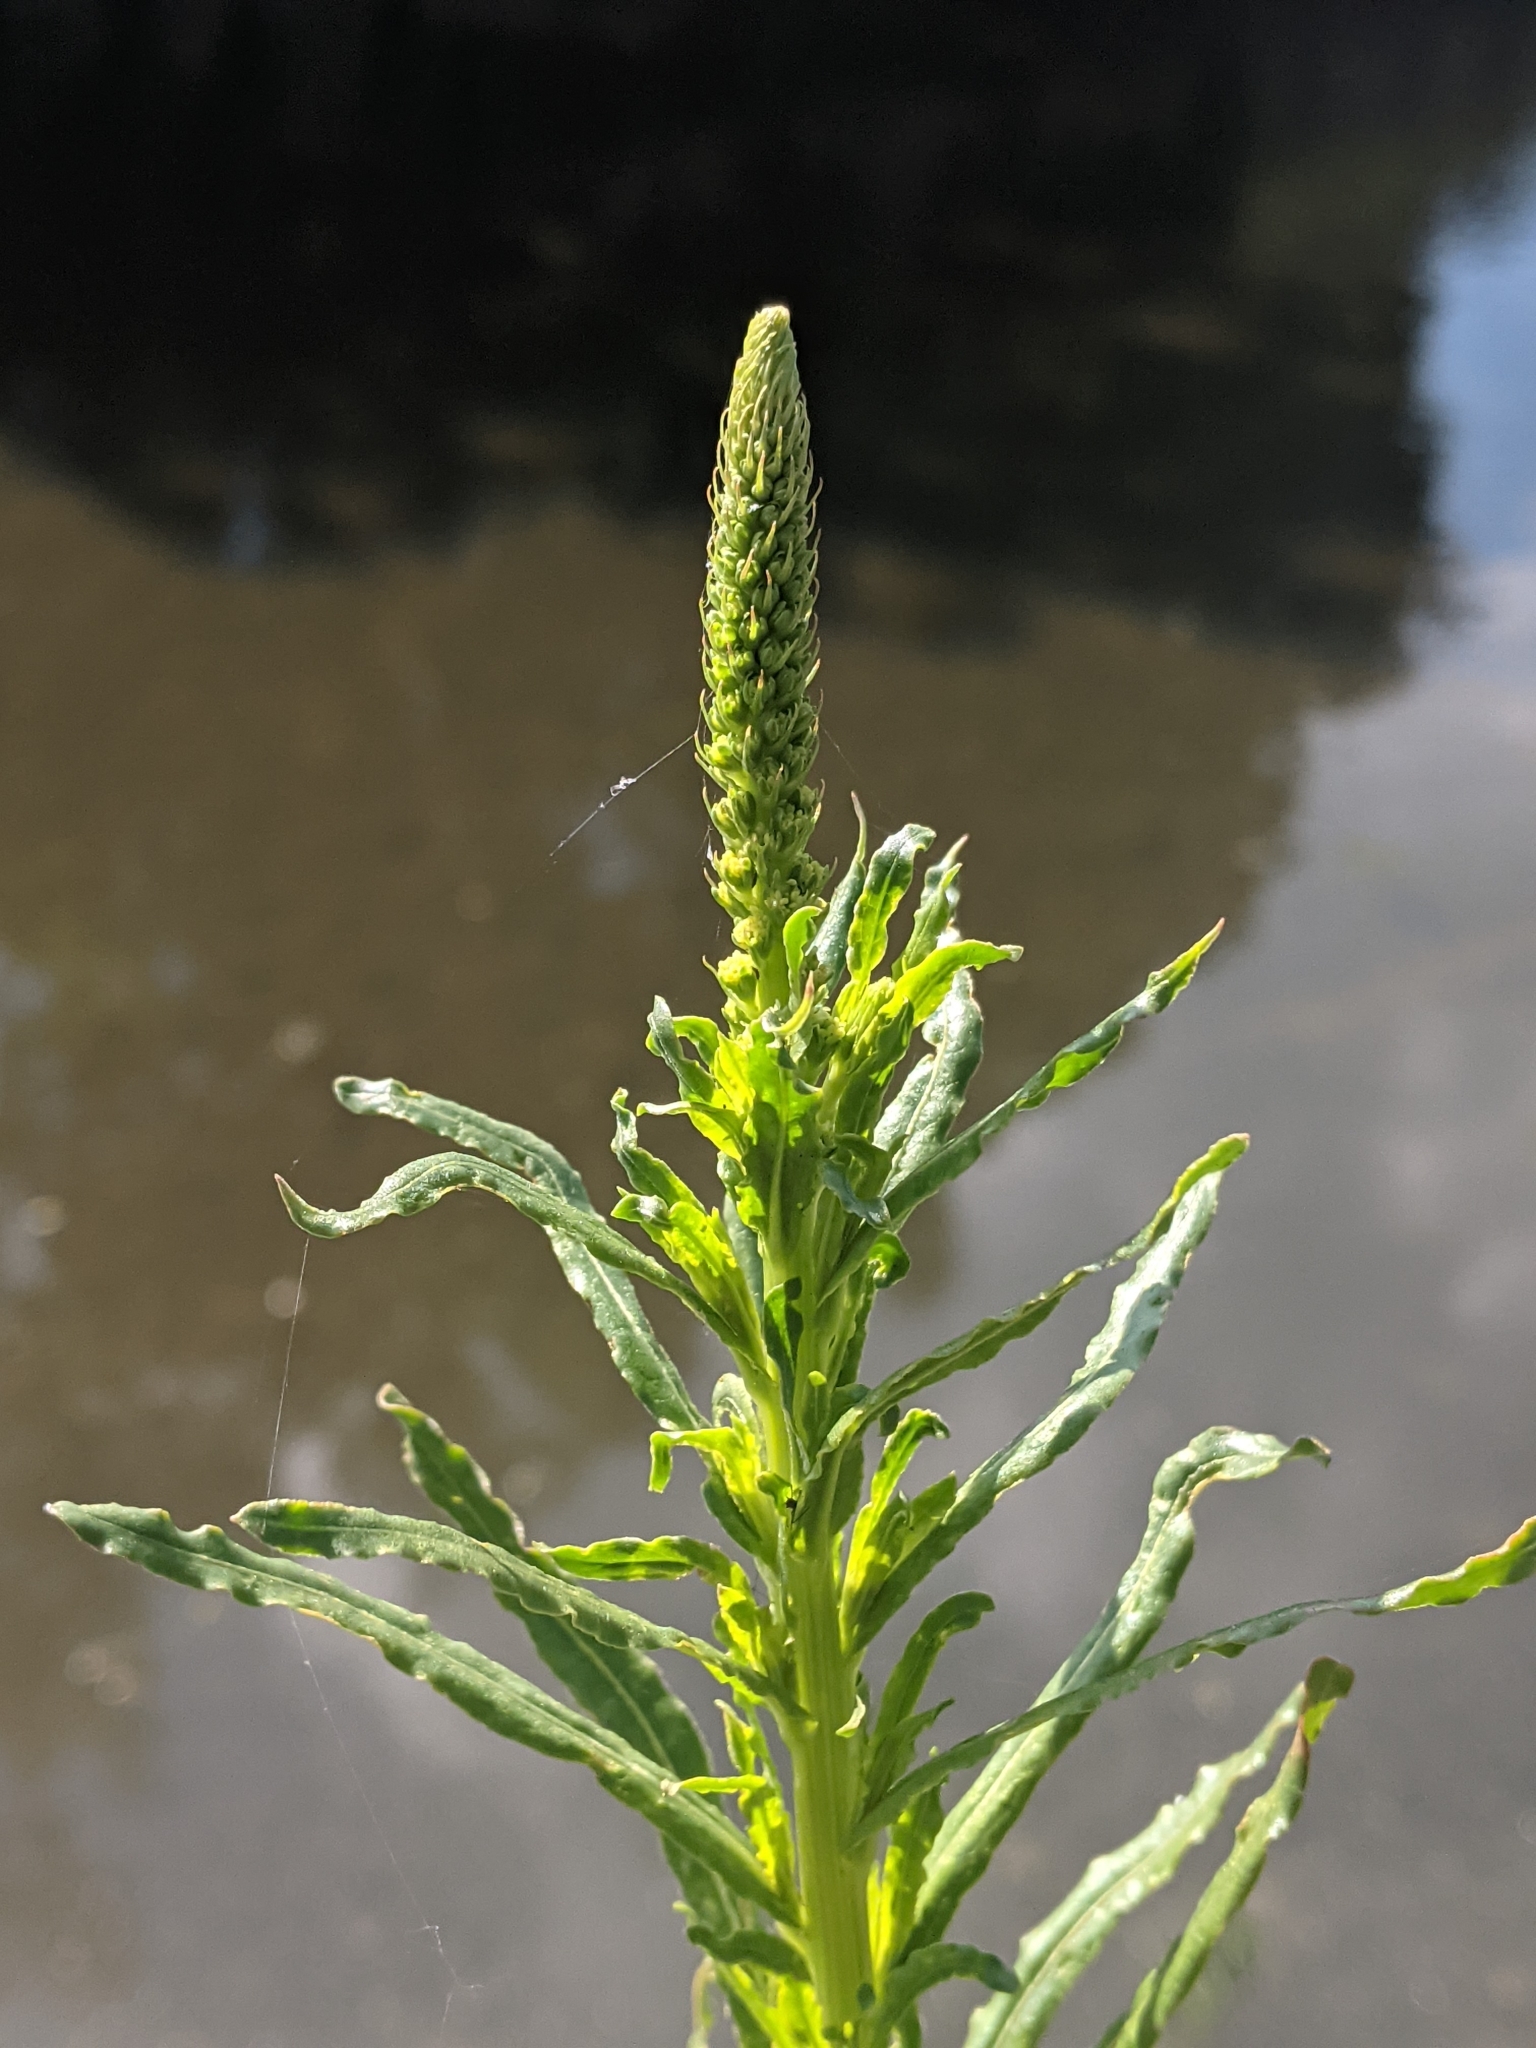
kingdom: Plantae
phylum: Tracheophyta
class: Magnoliopsida
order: Brassicales
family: Resedaceae
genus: Reseda
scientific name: Reseda luteola
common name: Weld
